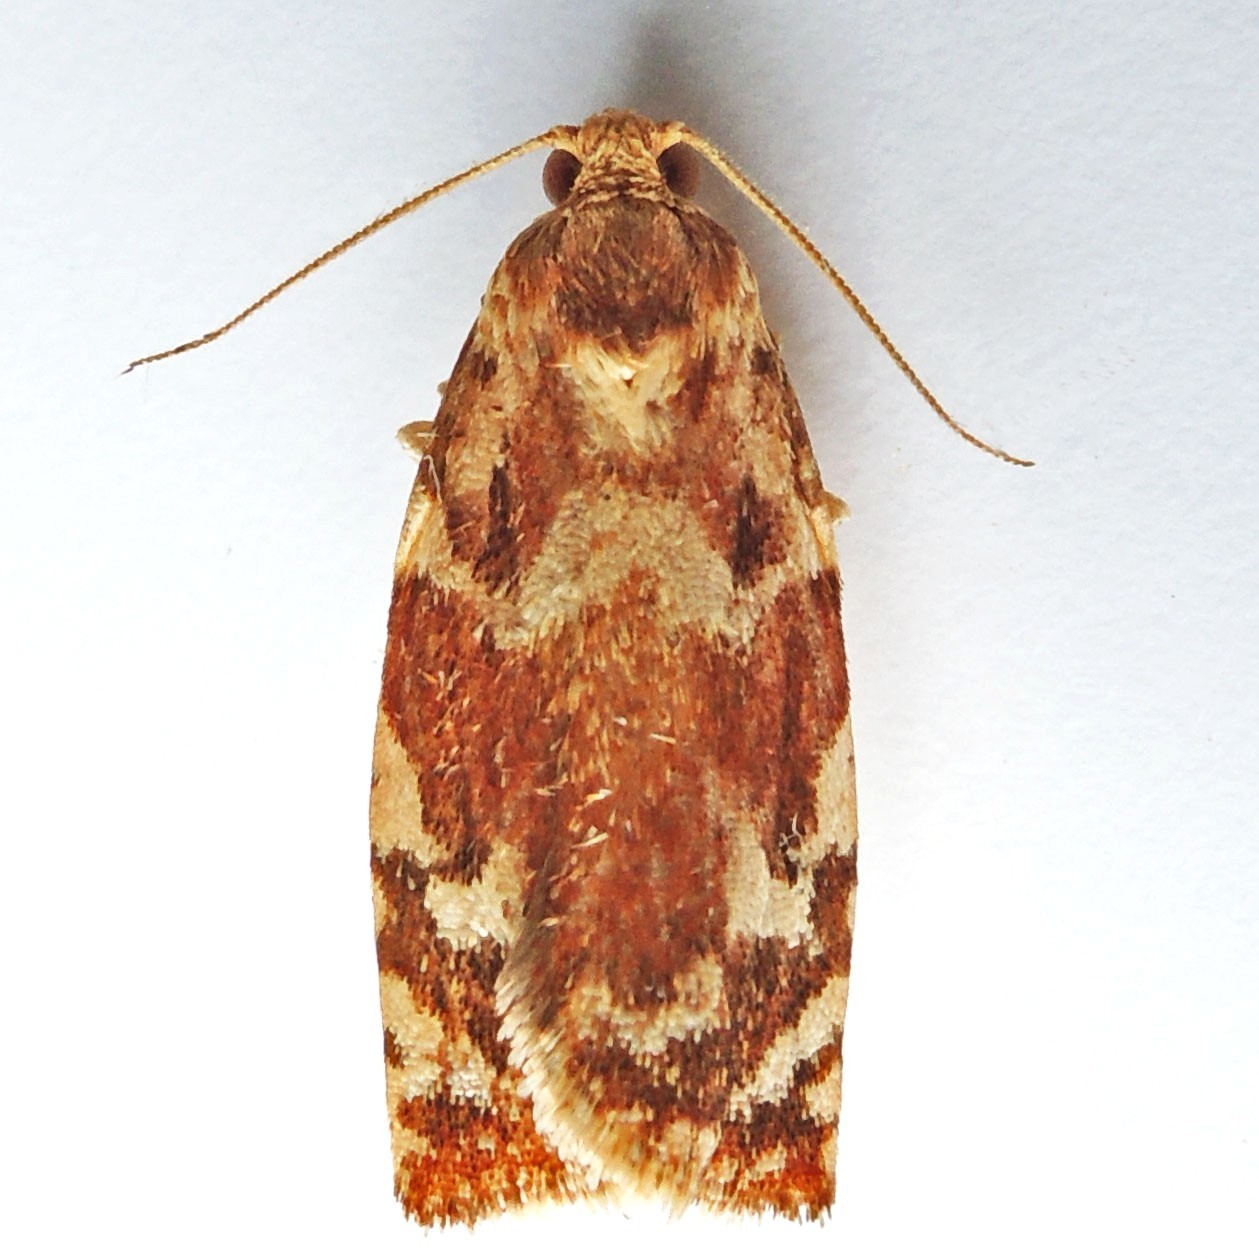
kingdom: Animalia
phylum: Arthropoda
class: Insecta
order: Lepidoptera
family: Tortricidae
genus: Archips
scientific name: Archips semiferanus
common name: Oak leafroller
